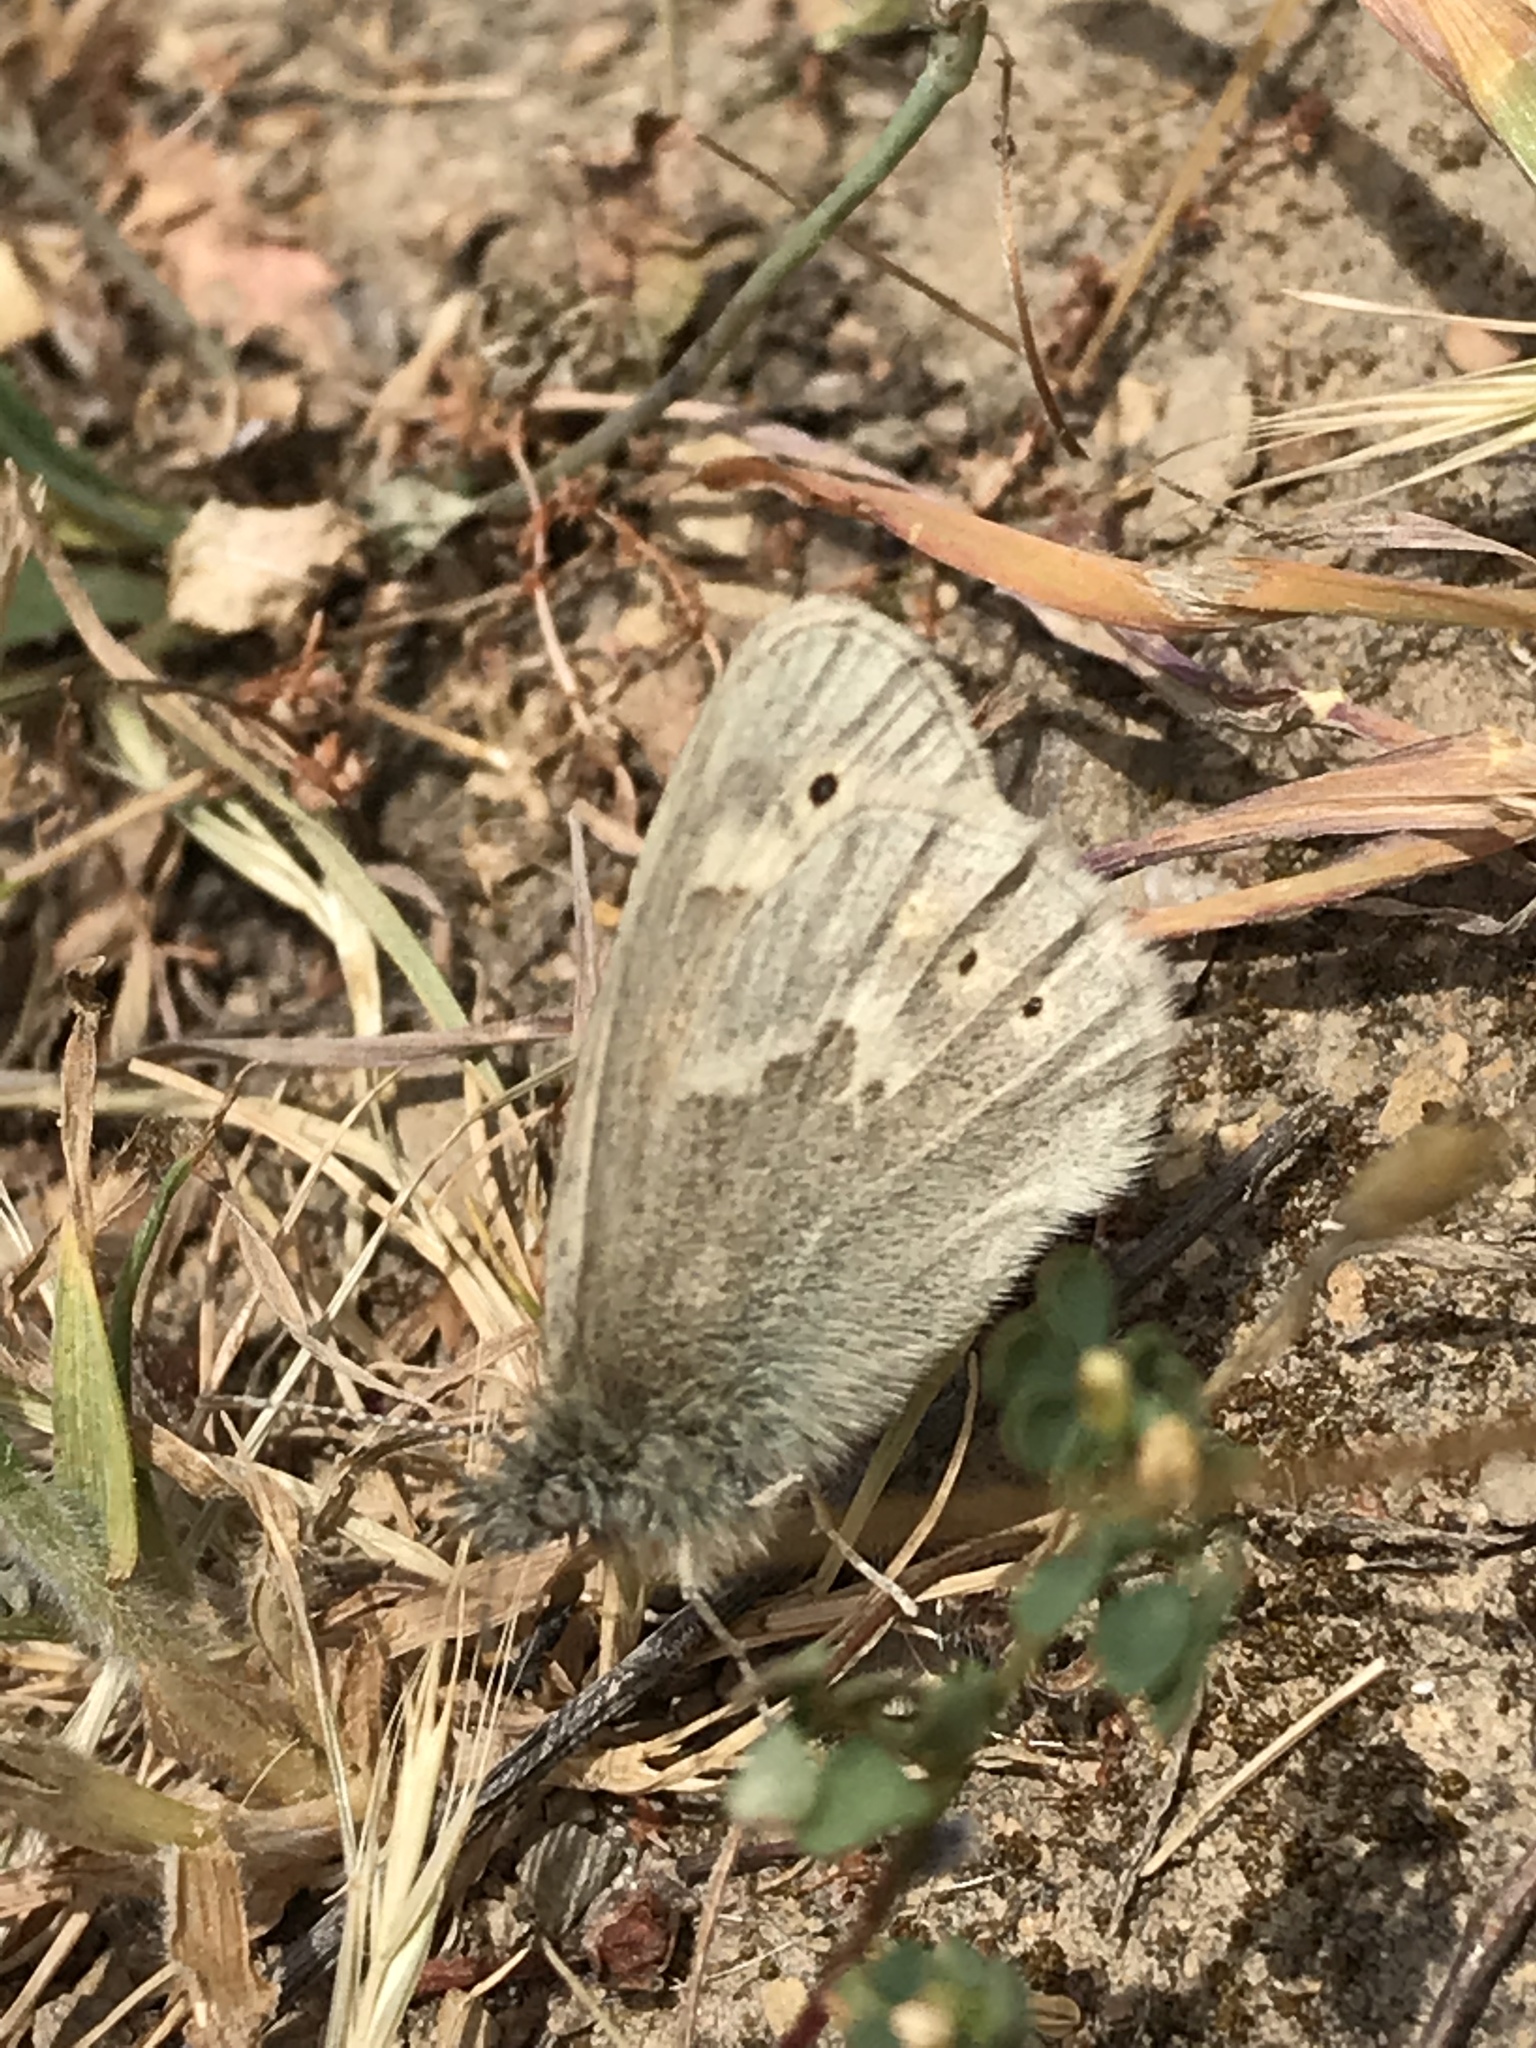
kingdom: Animalia
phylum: Arthropoda
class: Insecta
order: Lepidoptera
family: Nymphalidae
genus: Coenonympha
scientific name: Coenonympha california
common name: Common ringlet
